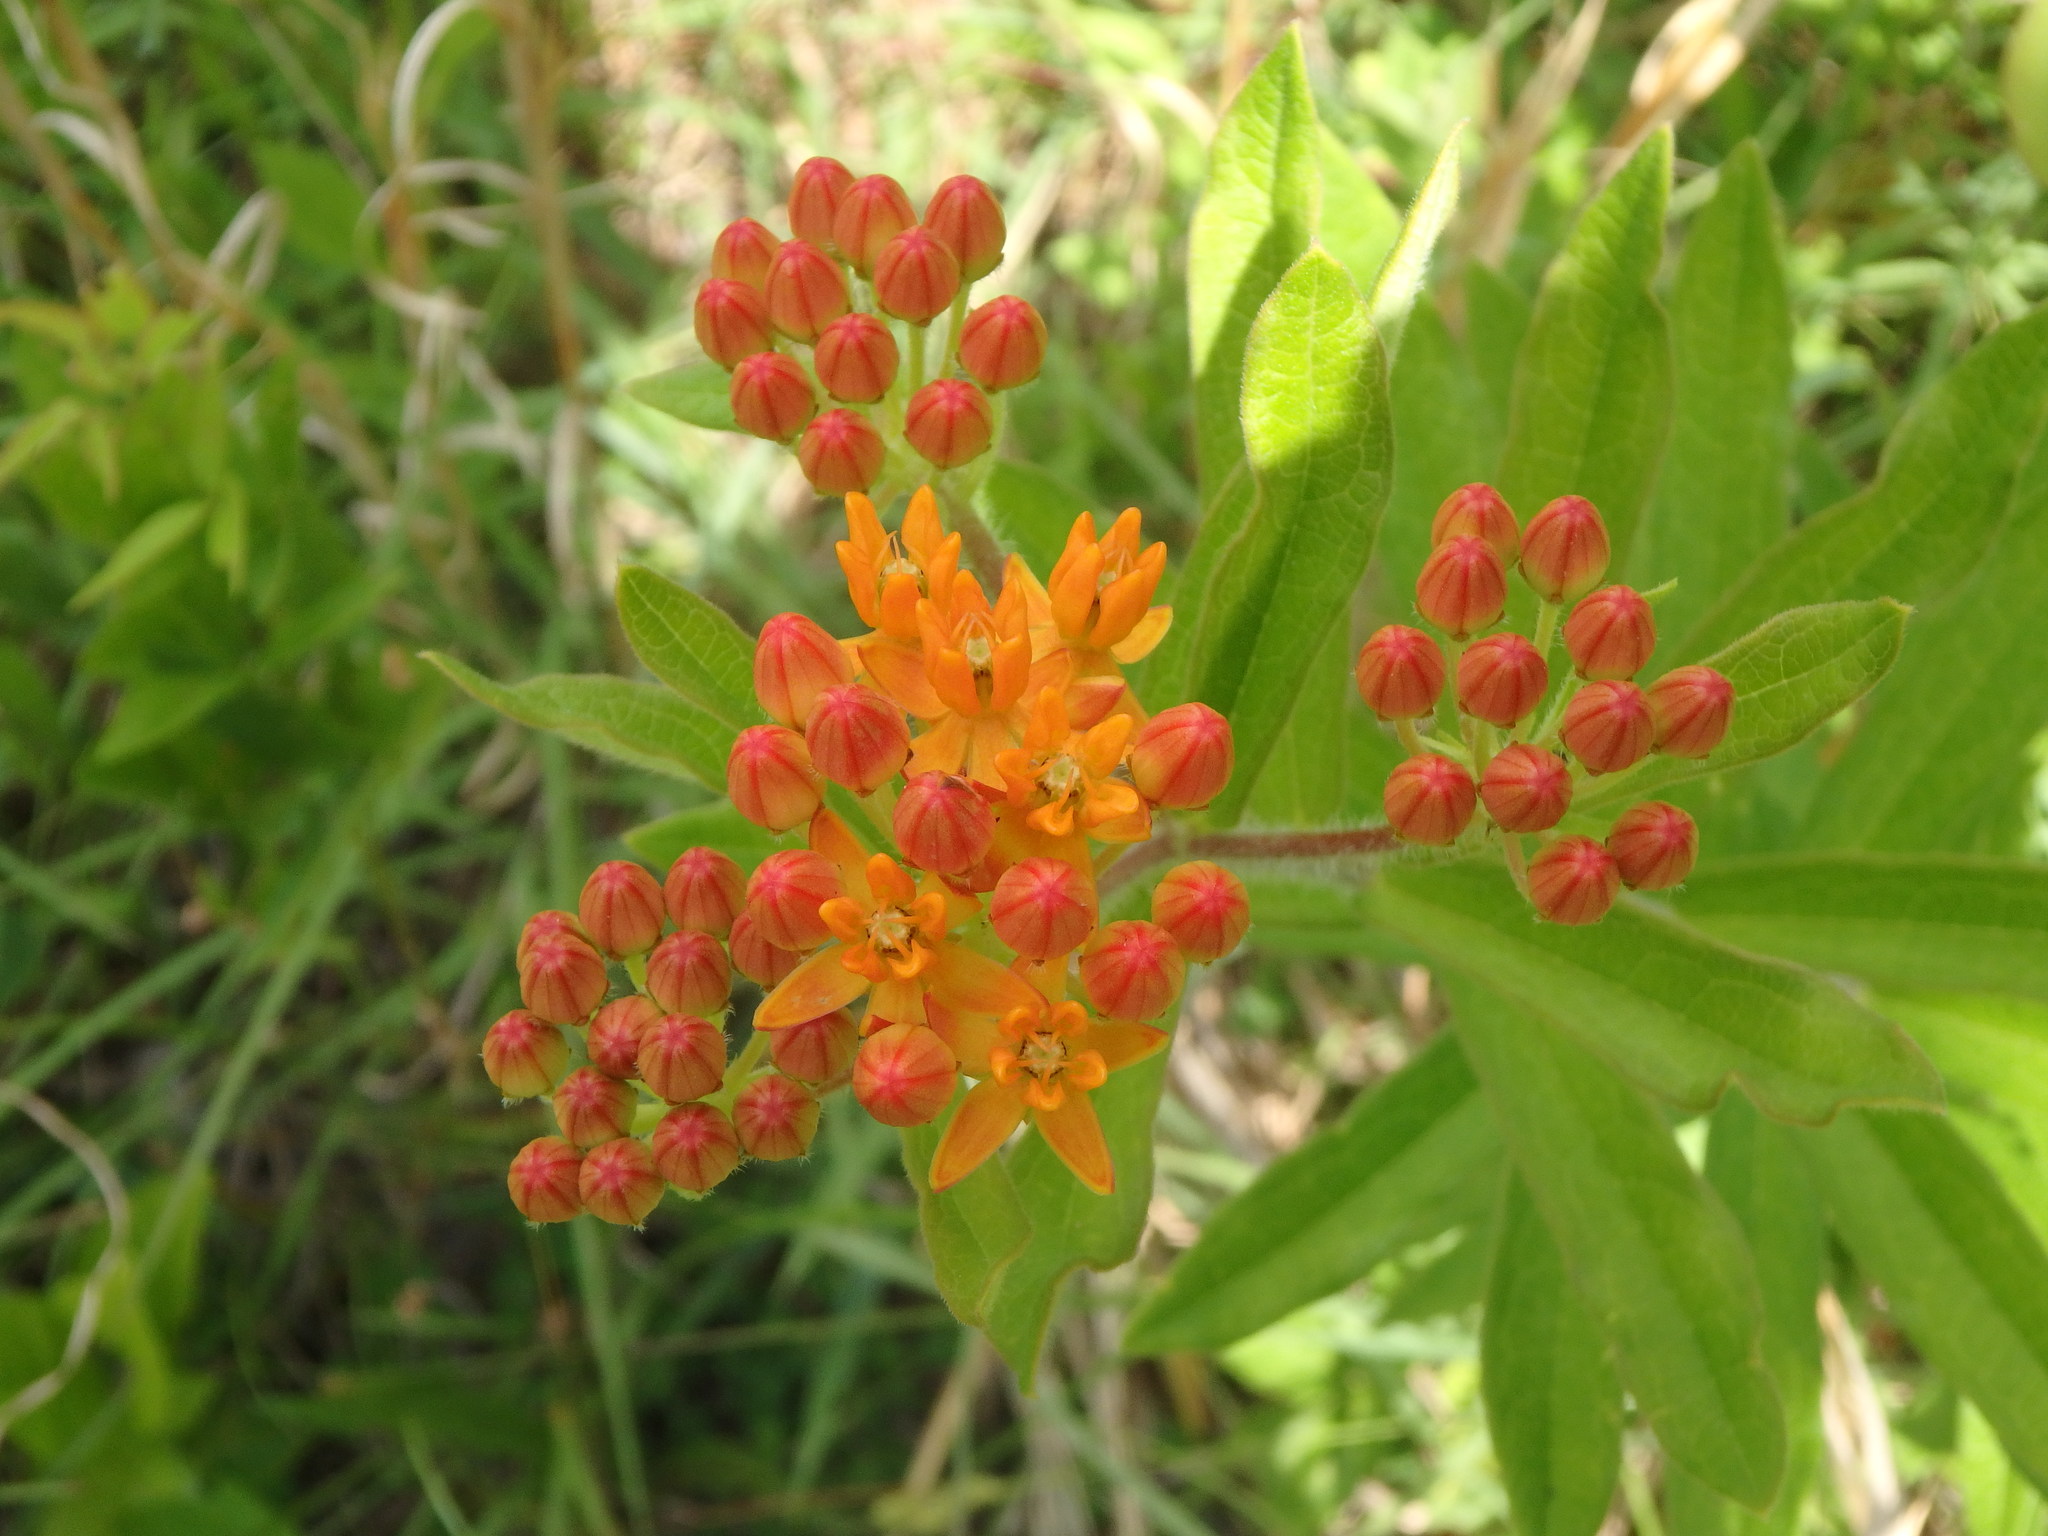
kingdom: Plantae
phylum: Tracheophyta
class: Magnoliopsida
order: Gentianales
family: Apocynaceae
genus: Asclepias
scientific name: Asclepias tuberosa
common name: Butterfly milkweed
